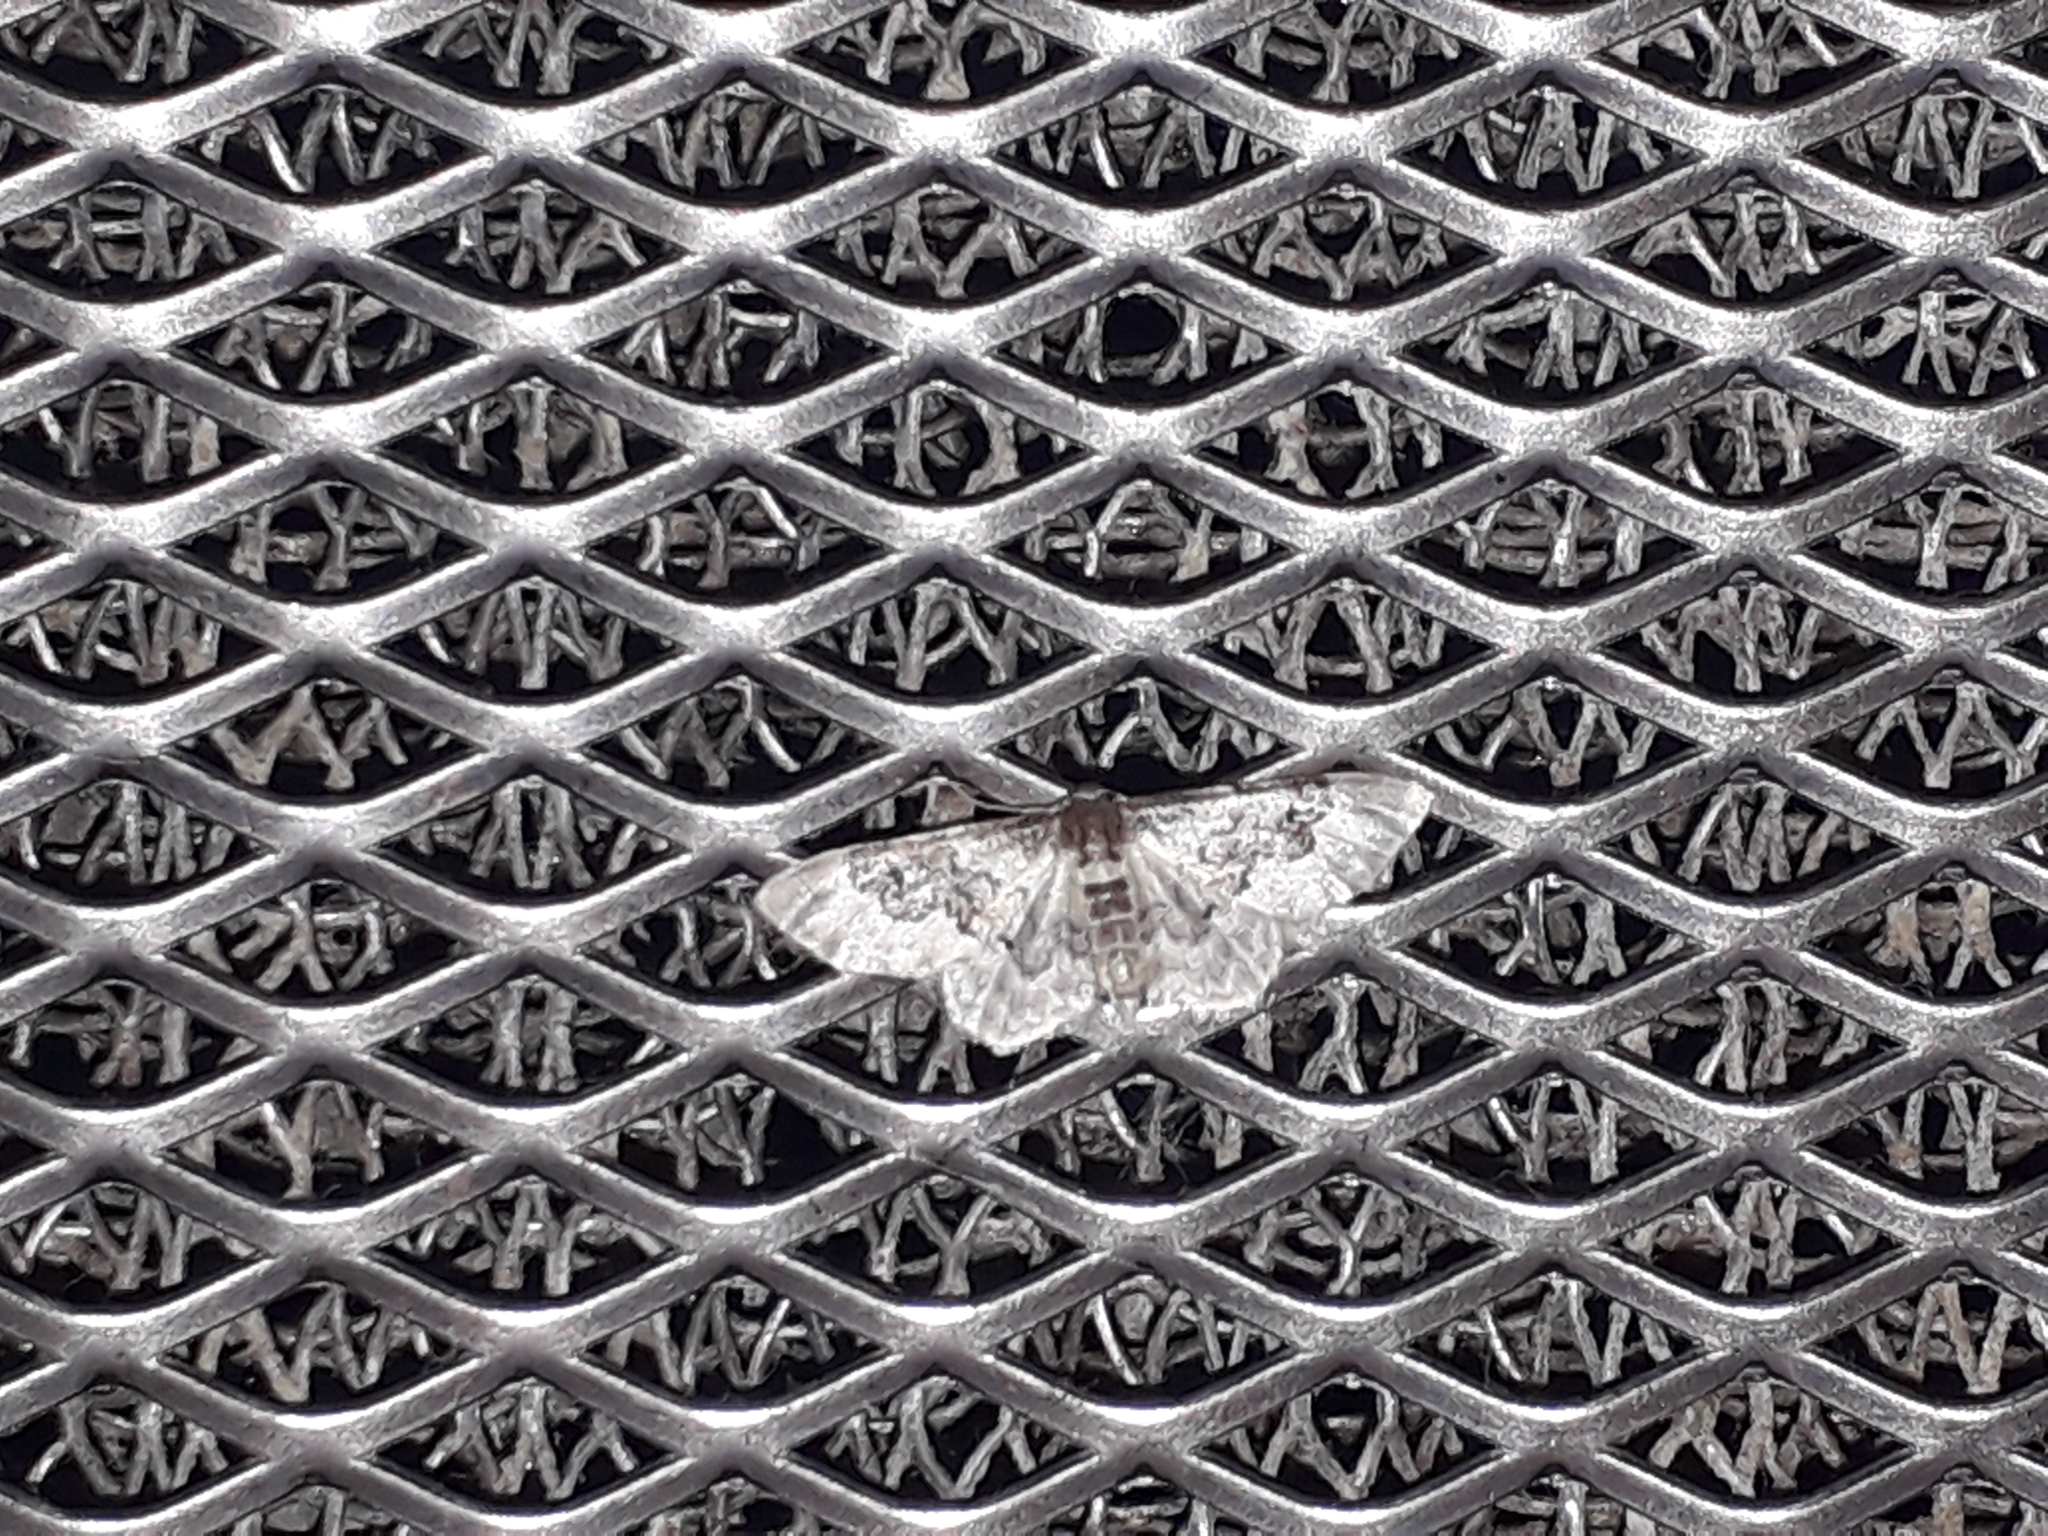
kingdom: Animalia
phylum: Arthropoda
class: Insecta
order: Lepidoptera
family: Geometridae
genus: Idaea
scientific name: Idaea rusticata
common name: Least carpet
